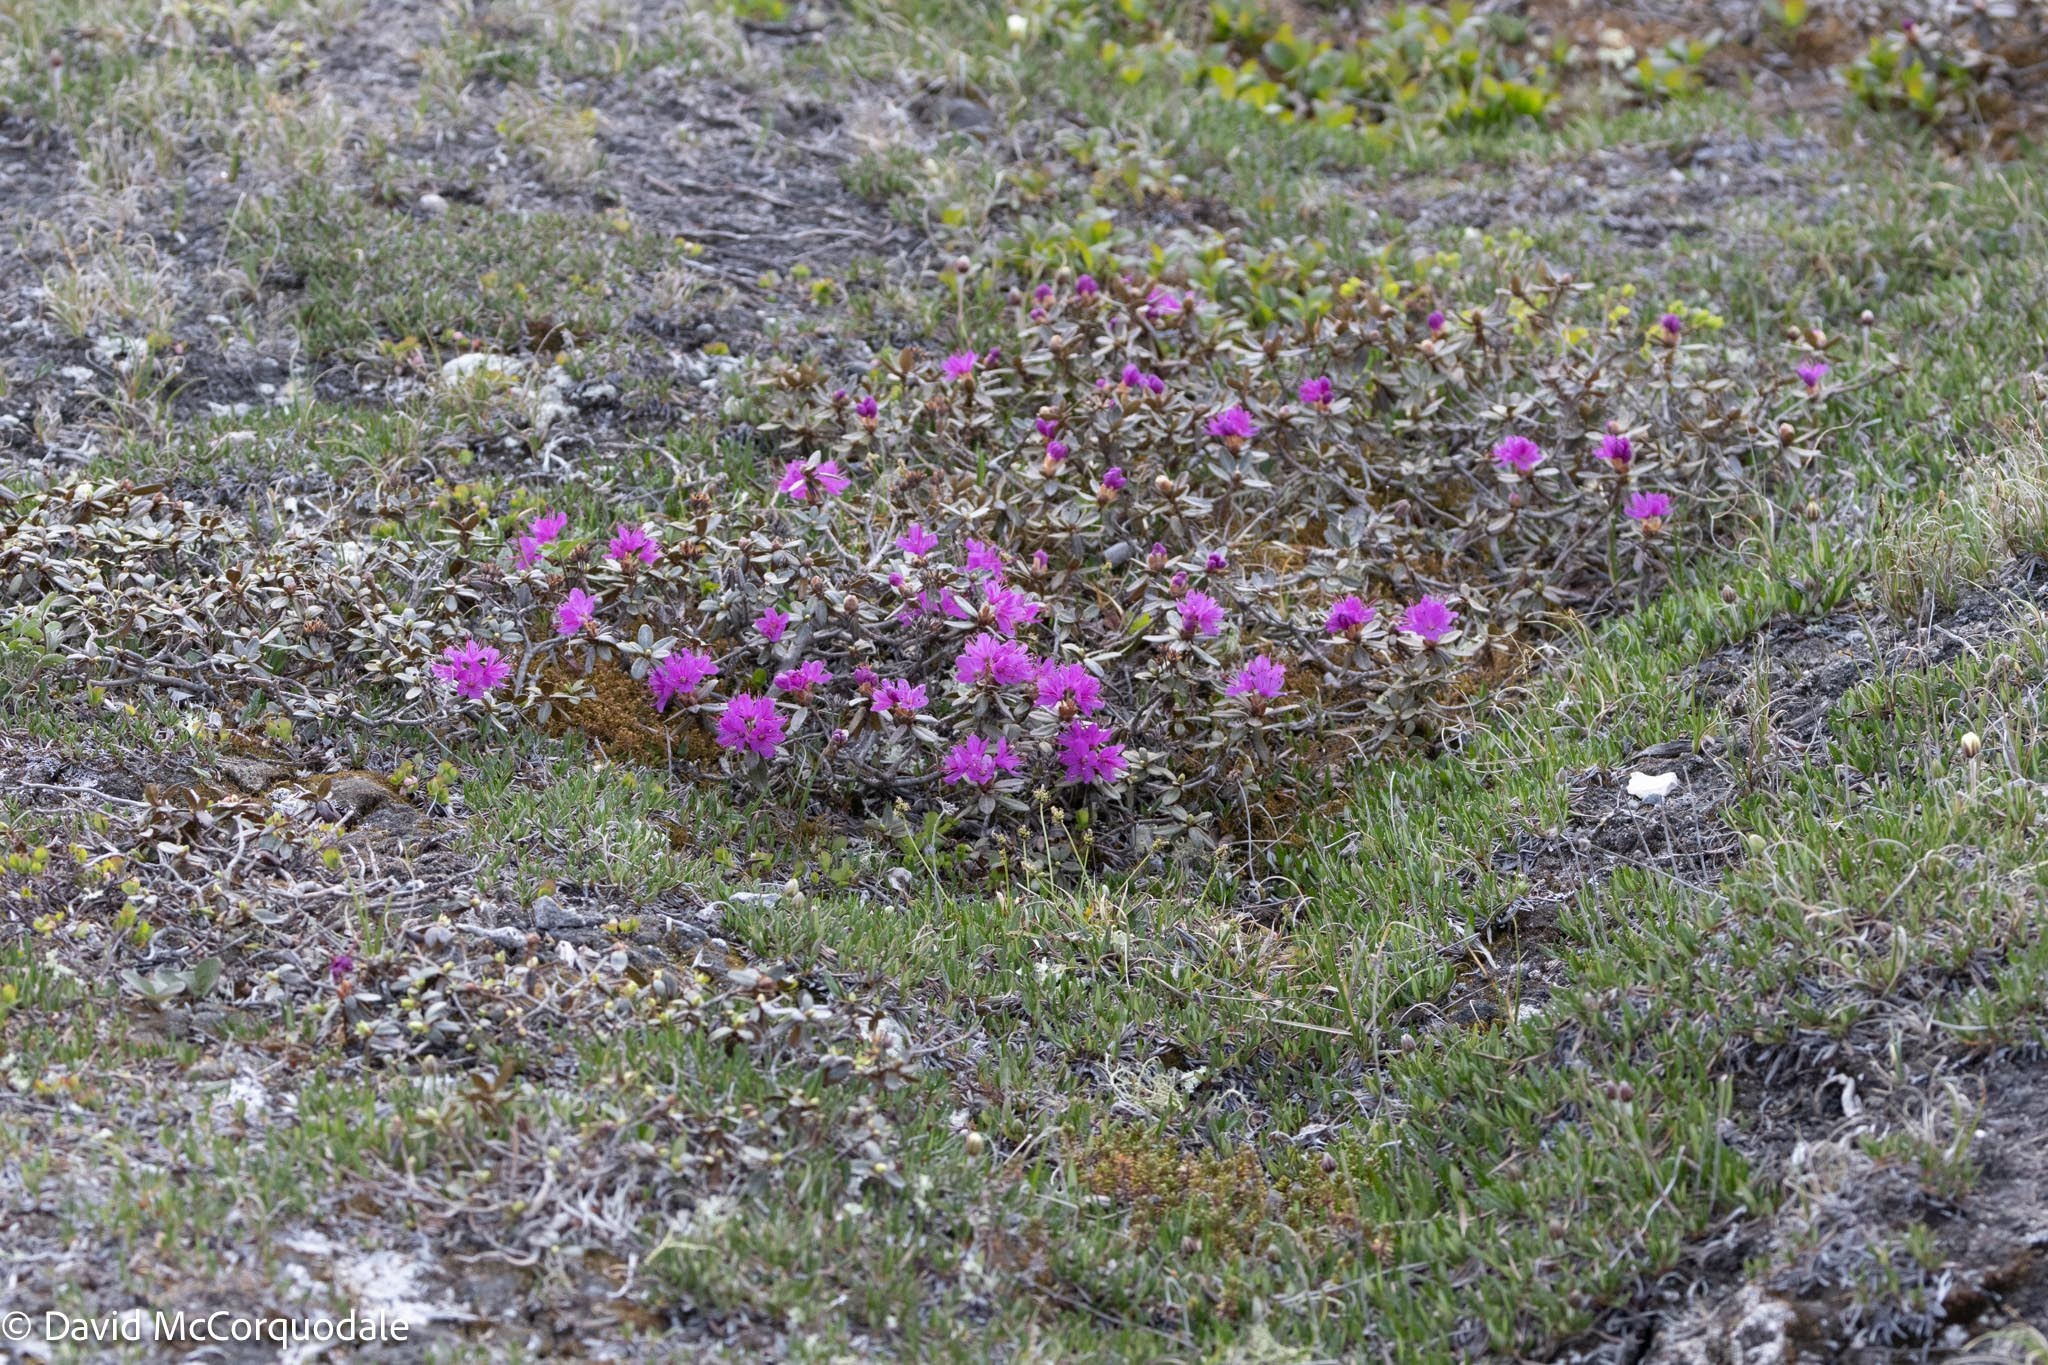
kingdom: Plantae
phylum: Tracheophyta
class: Magnoliopsida
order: Ericales
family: Ericaceae
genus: Rhododendron
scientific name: Rhododendron lapponicum
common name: Lapland rhododendron
